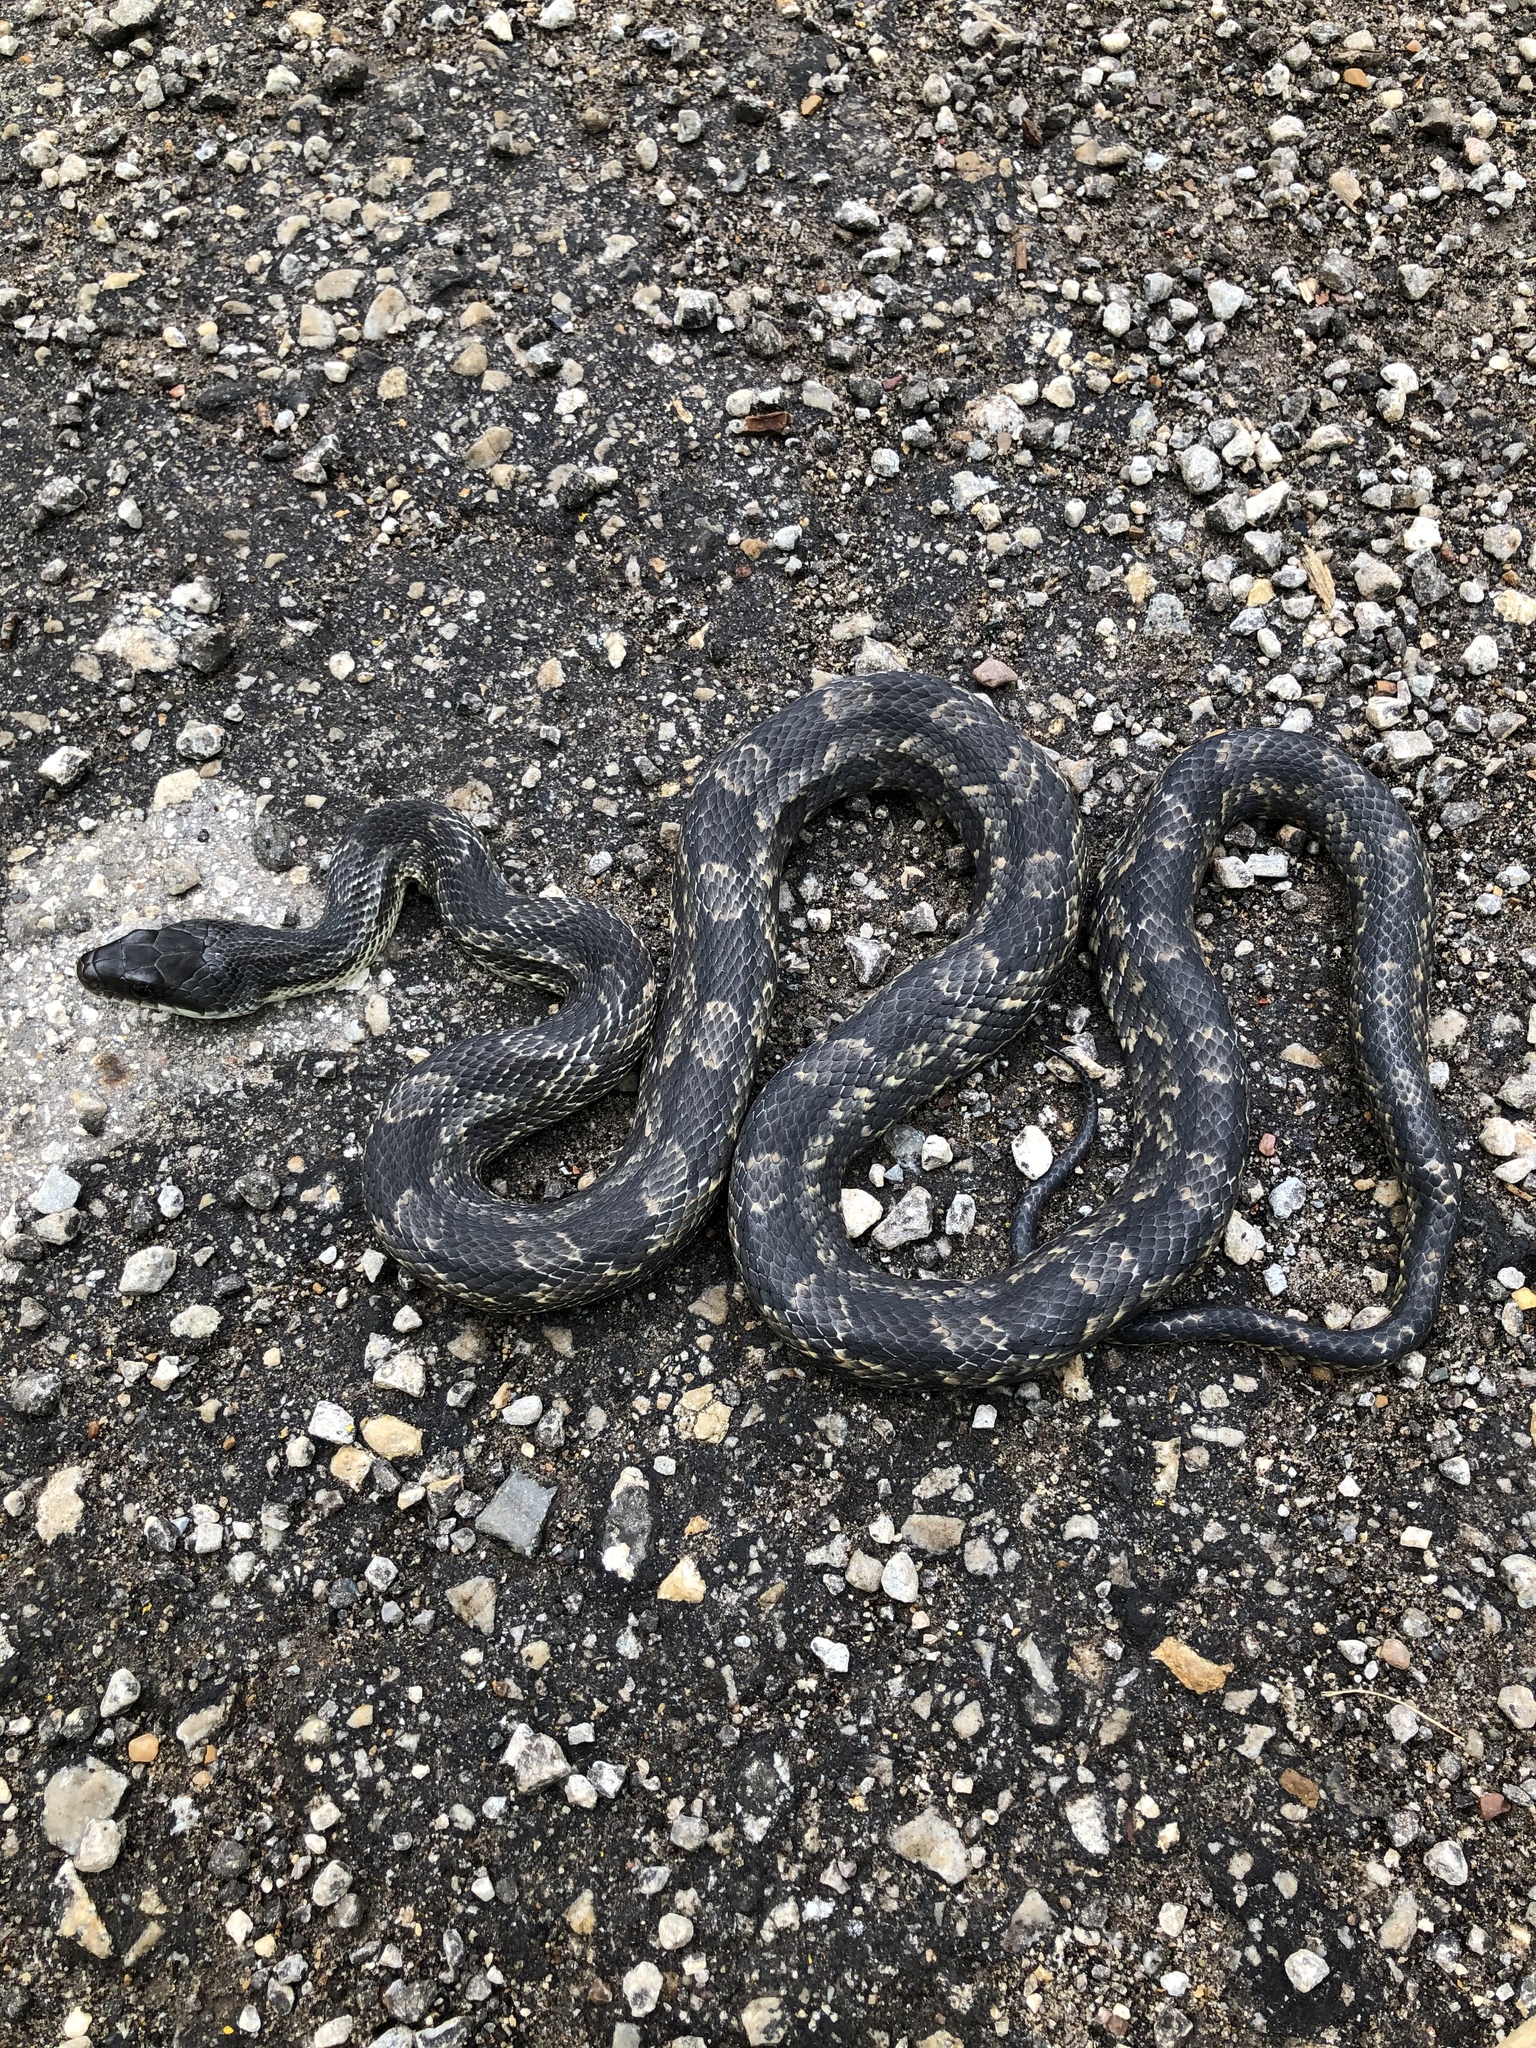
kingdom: Animalia
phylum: Chordata
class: Squamata
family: Colubridae
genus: Pantherophis
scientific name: Pantherophis obsoletus
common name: Black rat snake
